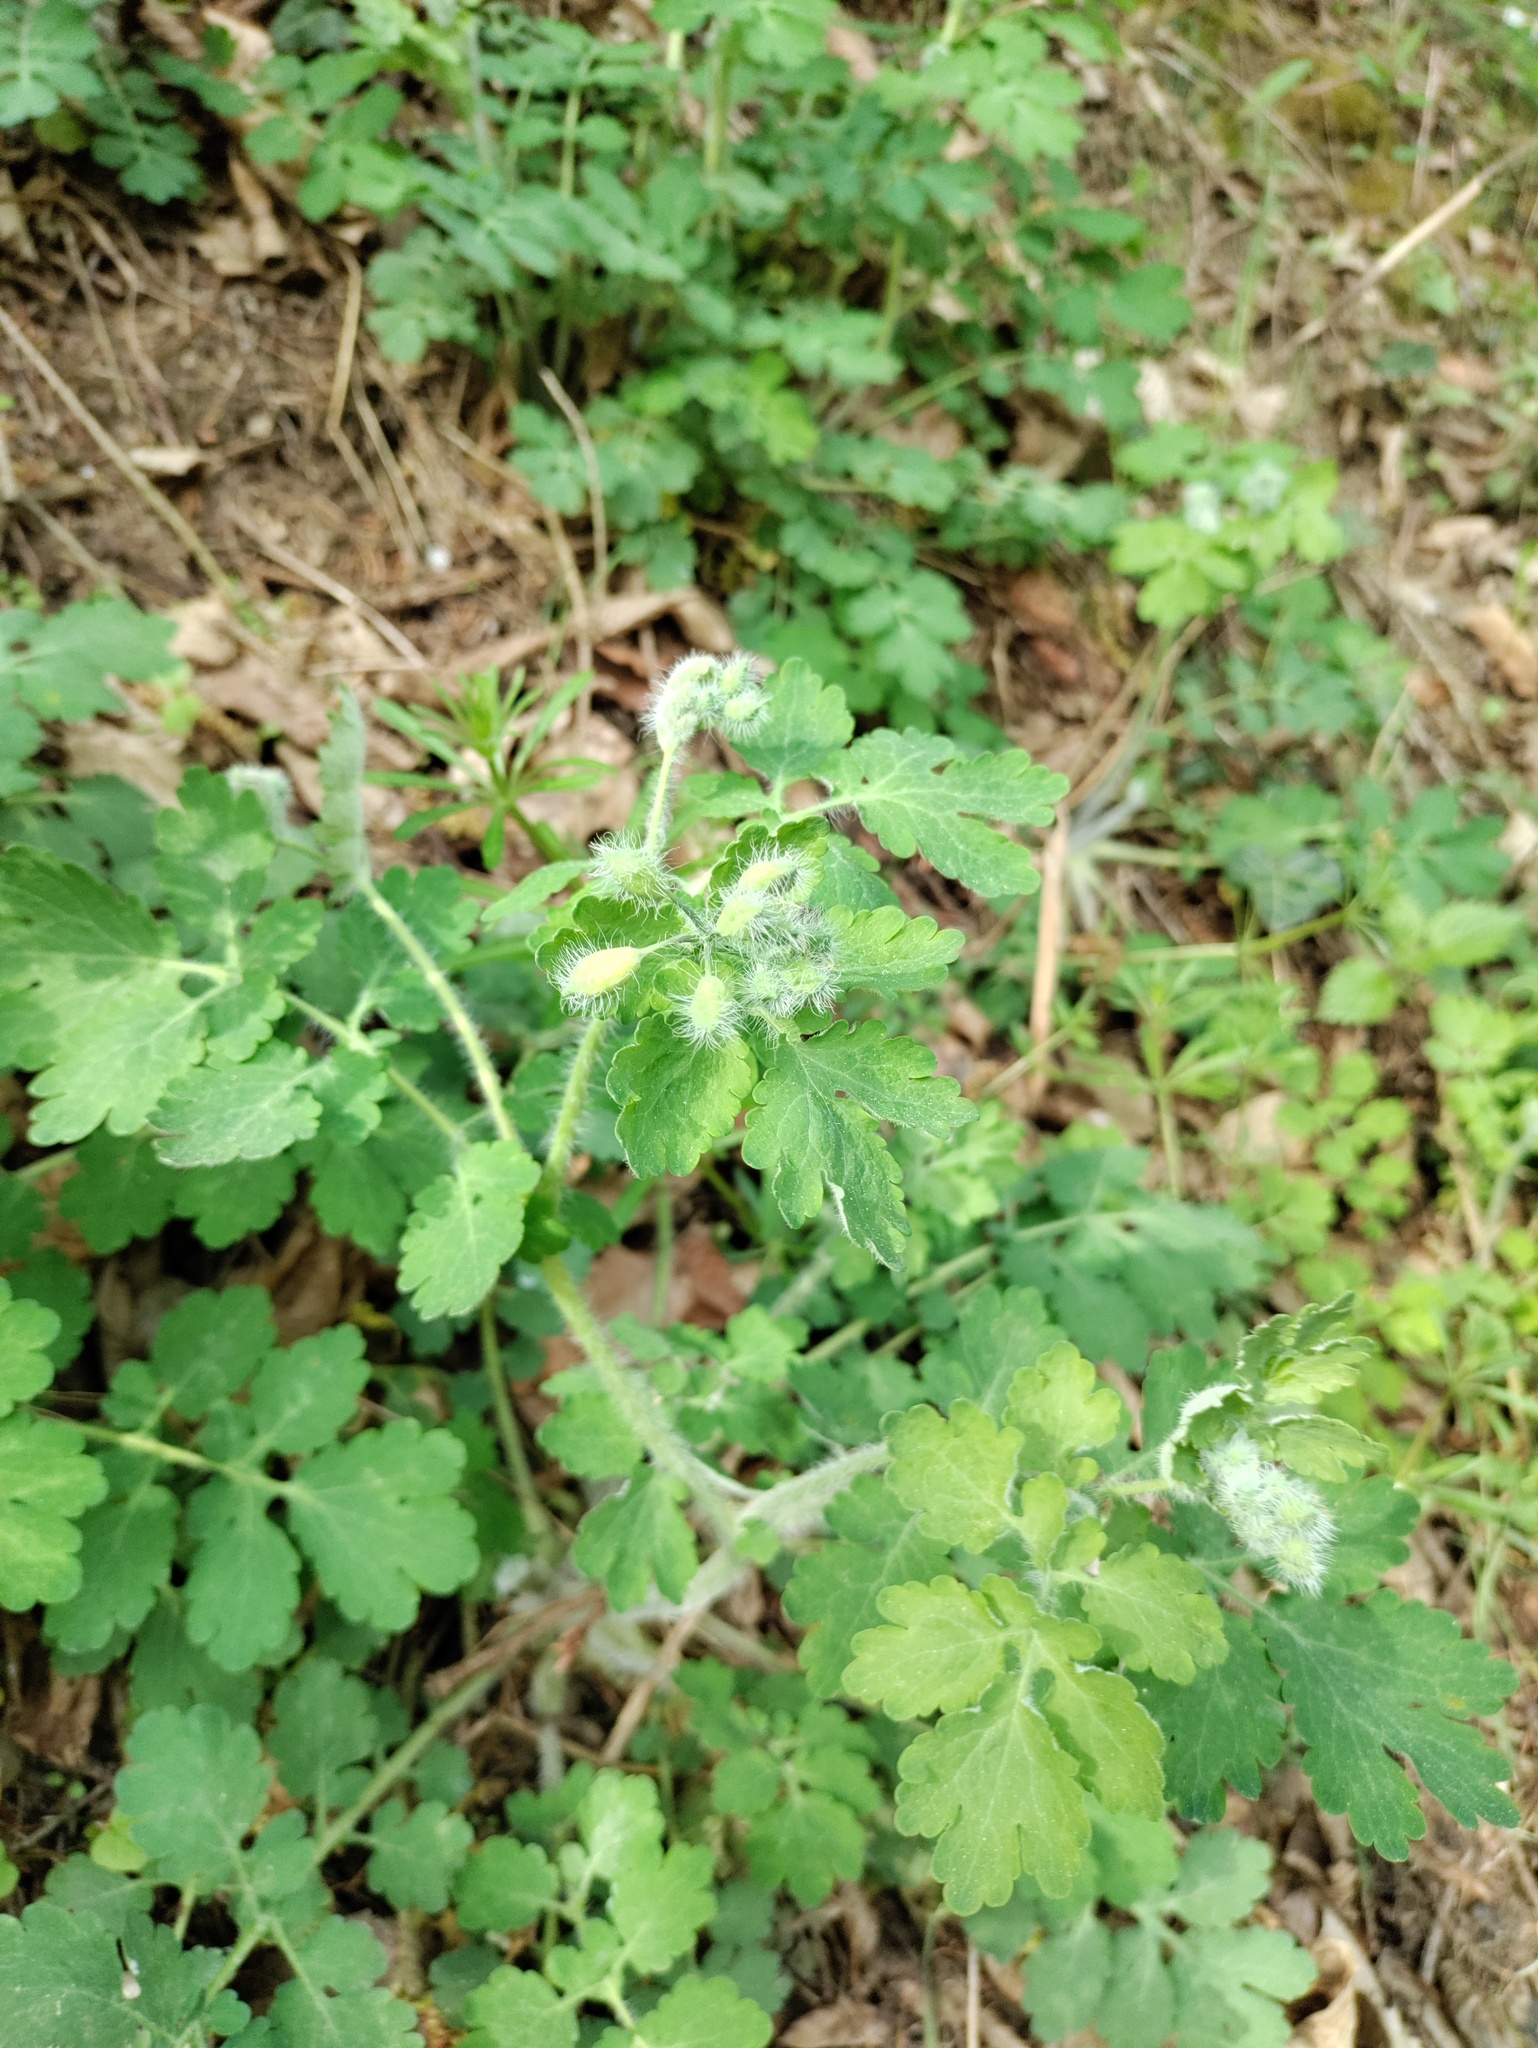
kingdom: Plantae
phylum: Tracheophyta
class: Magnoliopsida
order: Ranunculales
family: Papaveraceae
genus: Chelidonium
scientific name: Chelidonium majus
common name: Greater celandine
